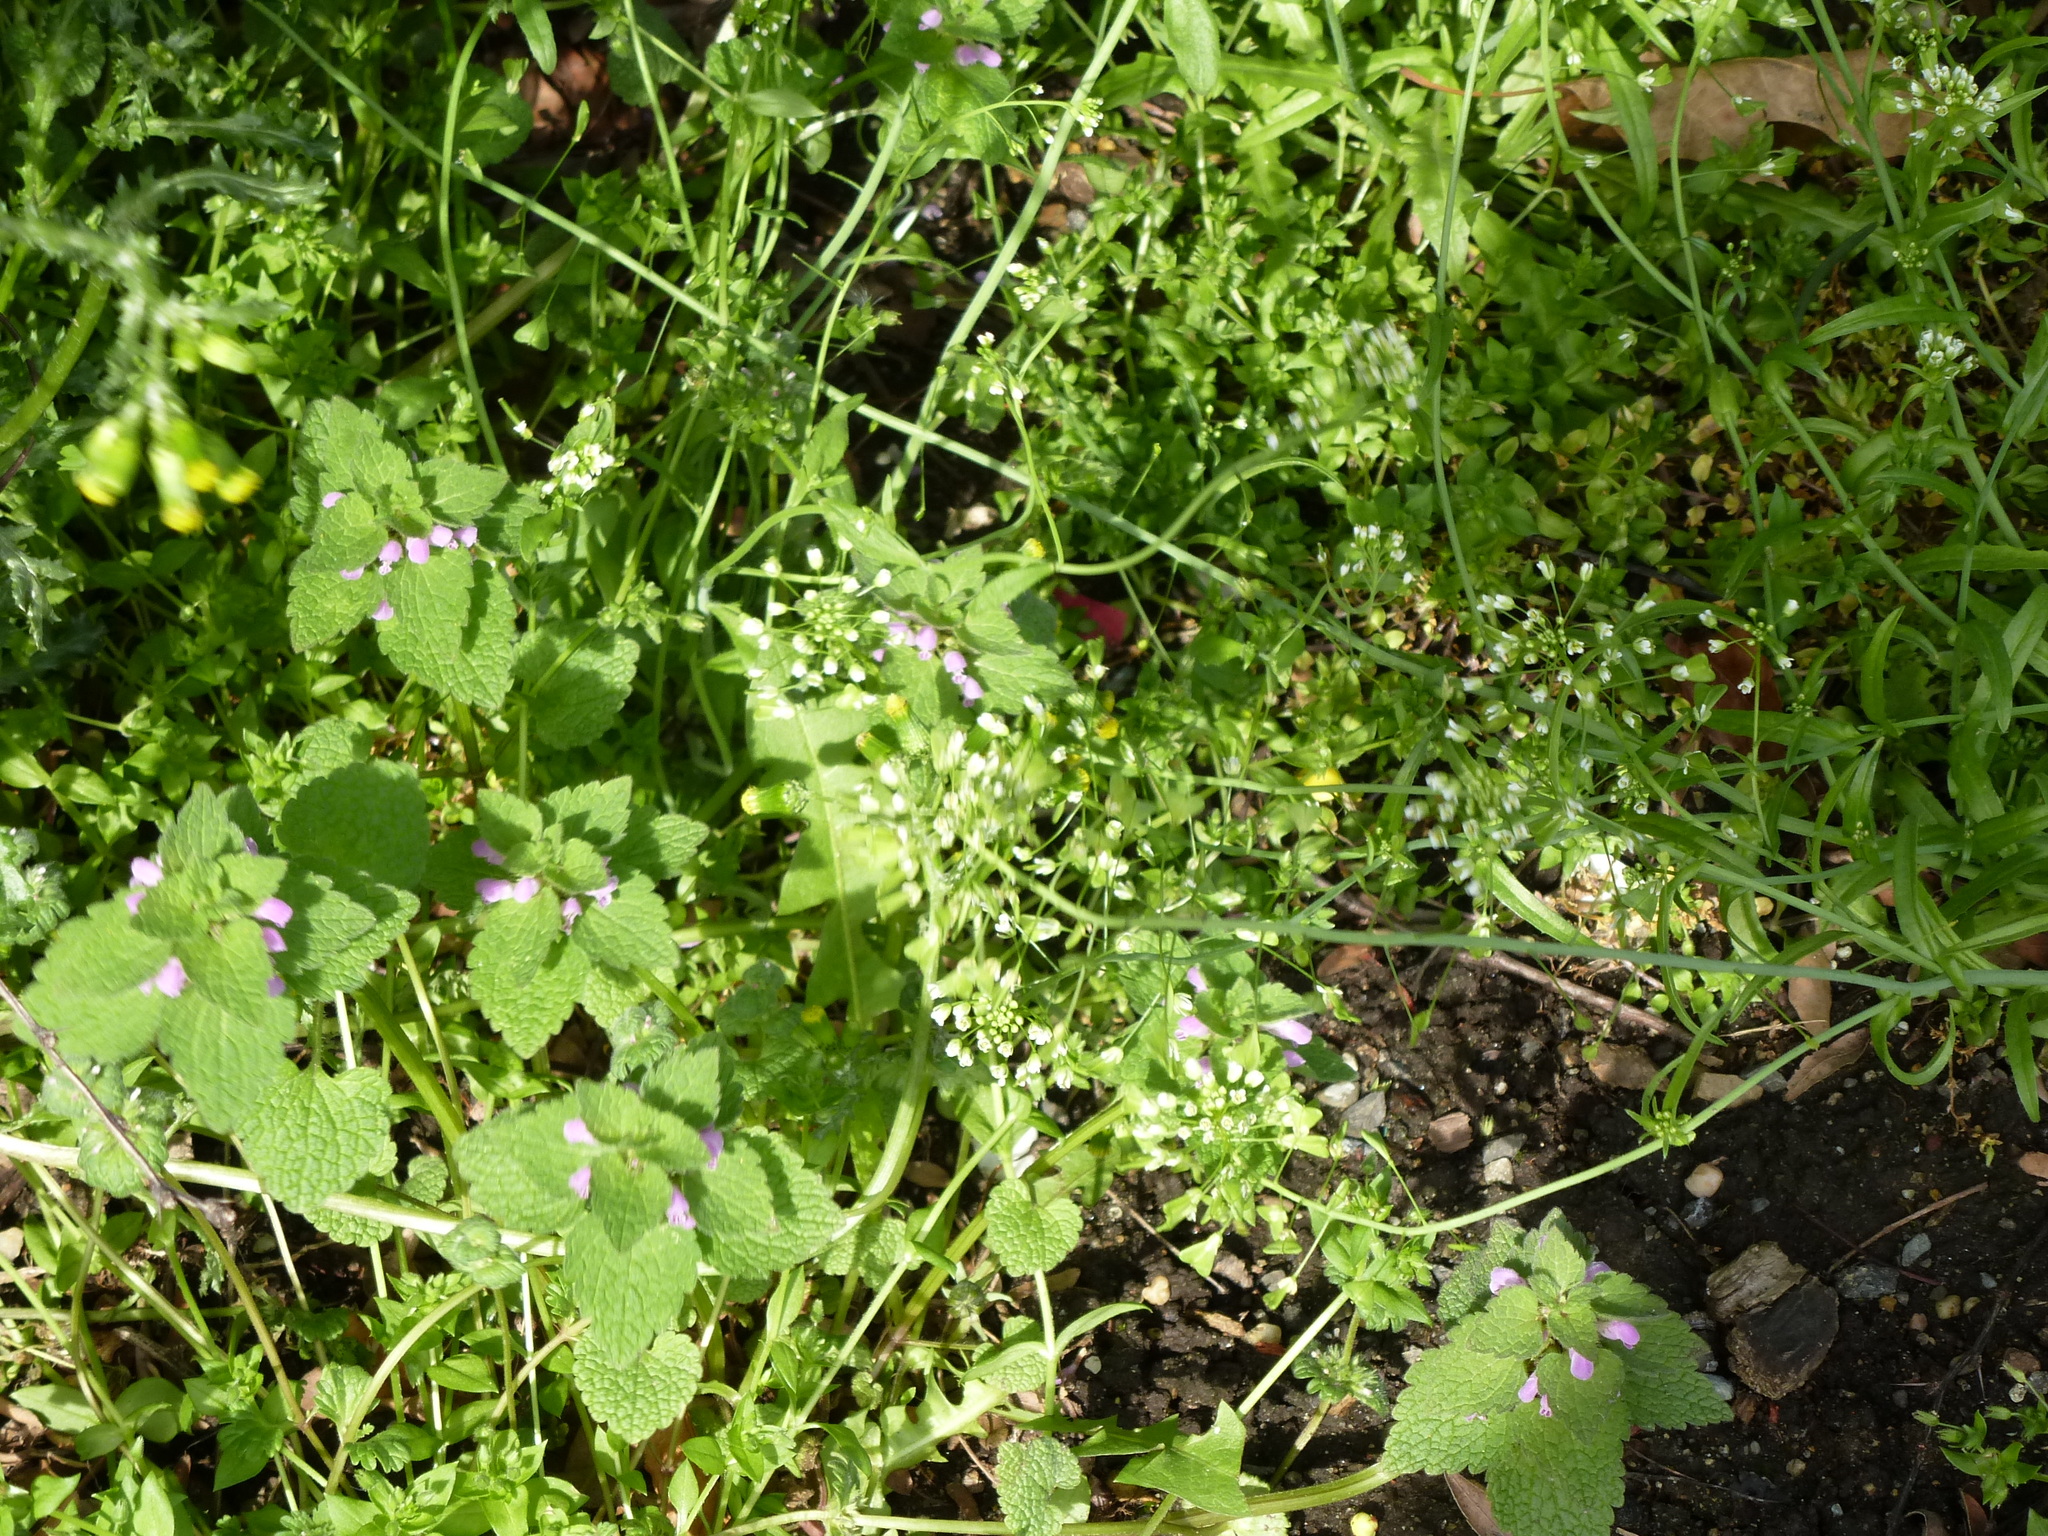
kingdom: Plantae
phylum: Tracheophyta
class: Magnoliopsida
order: Lamiales
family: Lamiaceae
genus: Lamium
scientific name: Lamium purpureum
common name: Red dead-nettle
